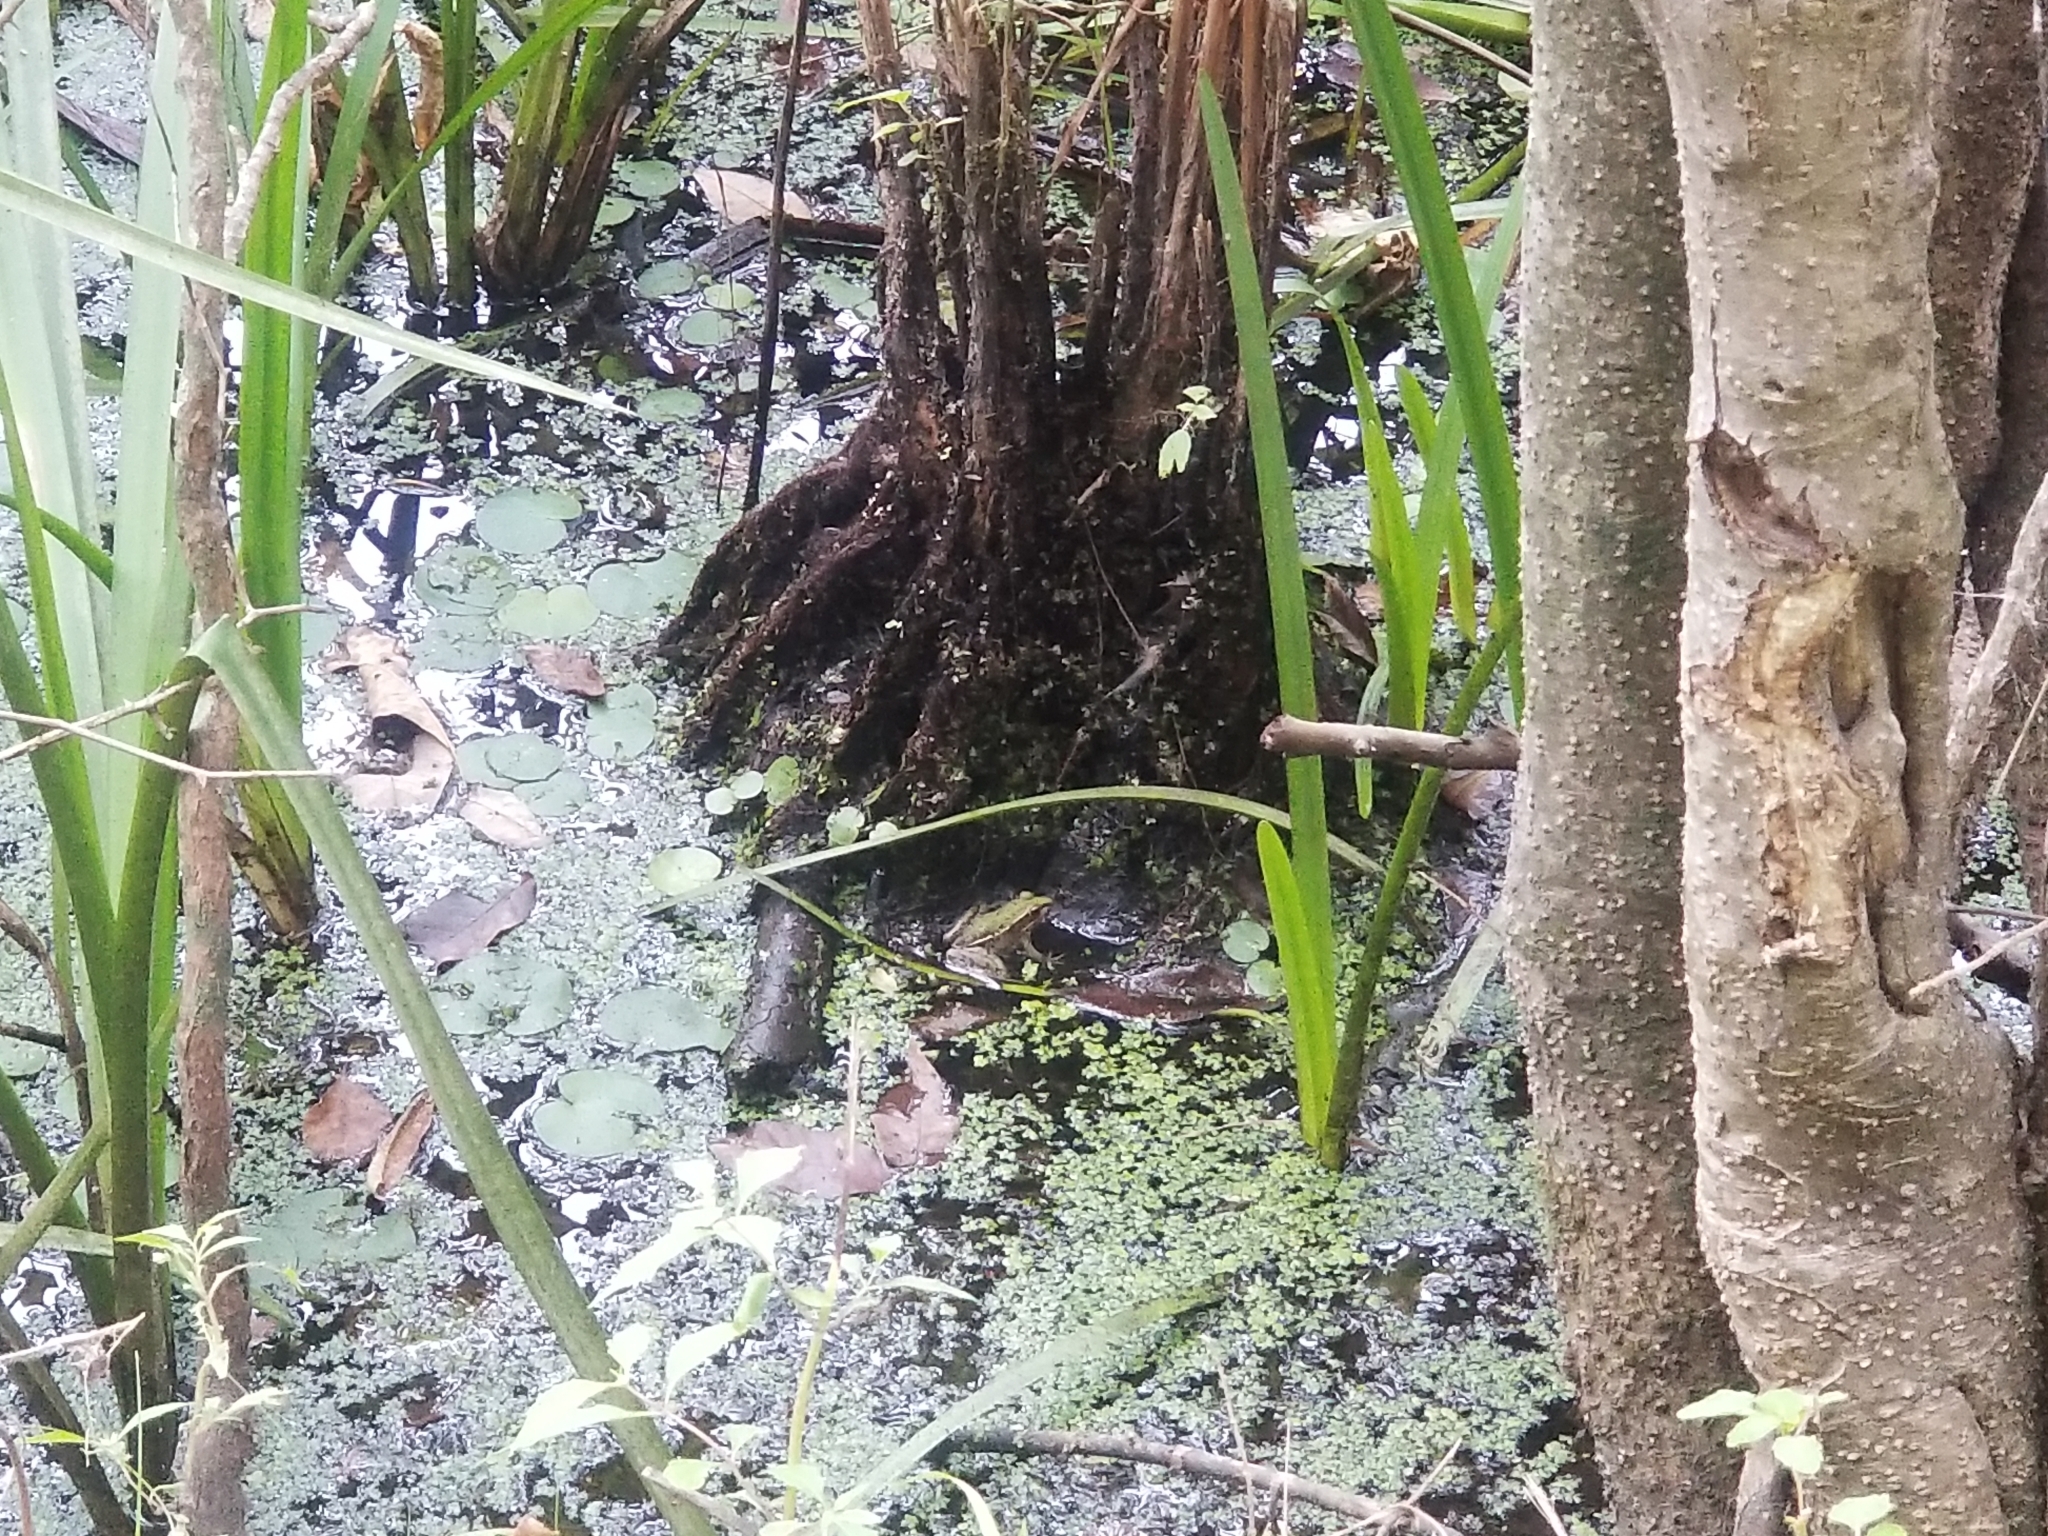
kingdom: Animalia
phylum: Chordata
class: Amphibia
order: Anura
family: Ranidae
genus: Lithobates
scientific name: Lithobates sphenocephalus
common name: Southern leopard frog
